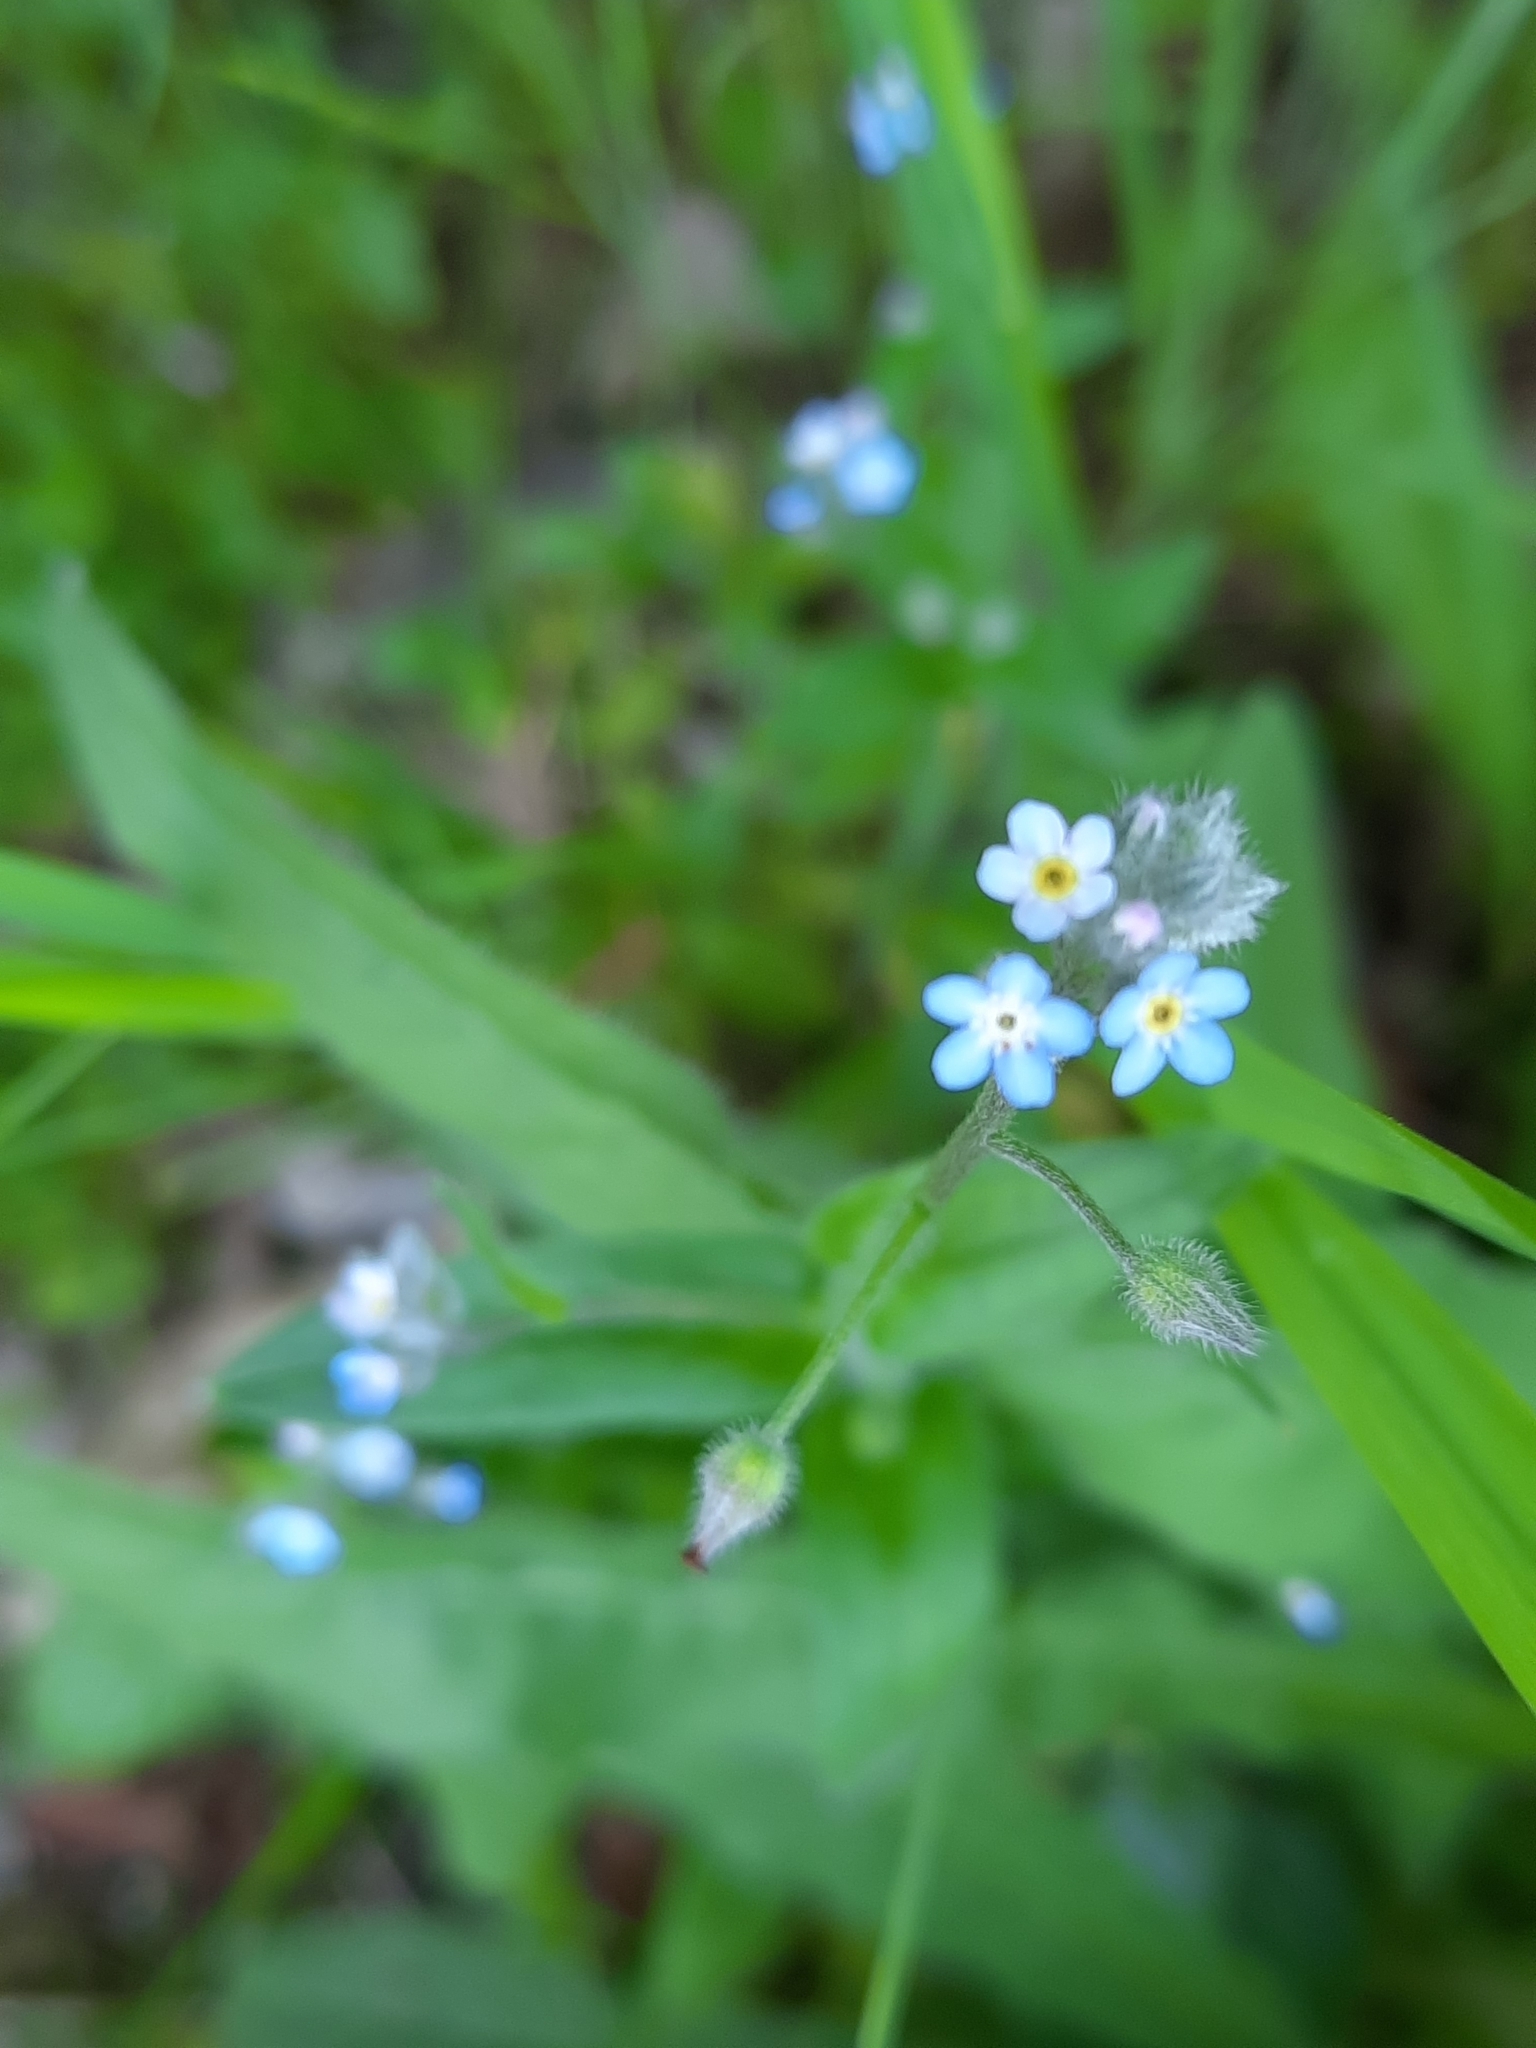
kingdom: Plantae
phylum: Tracheophyta
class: Magnoliopsida
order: Boraginales
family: Boraginaceae
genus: Myosotis
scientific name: Myosotis arvensis
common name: Field forget-me-not
